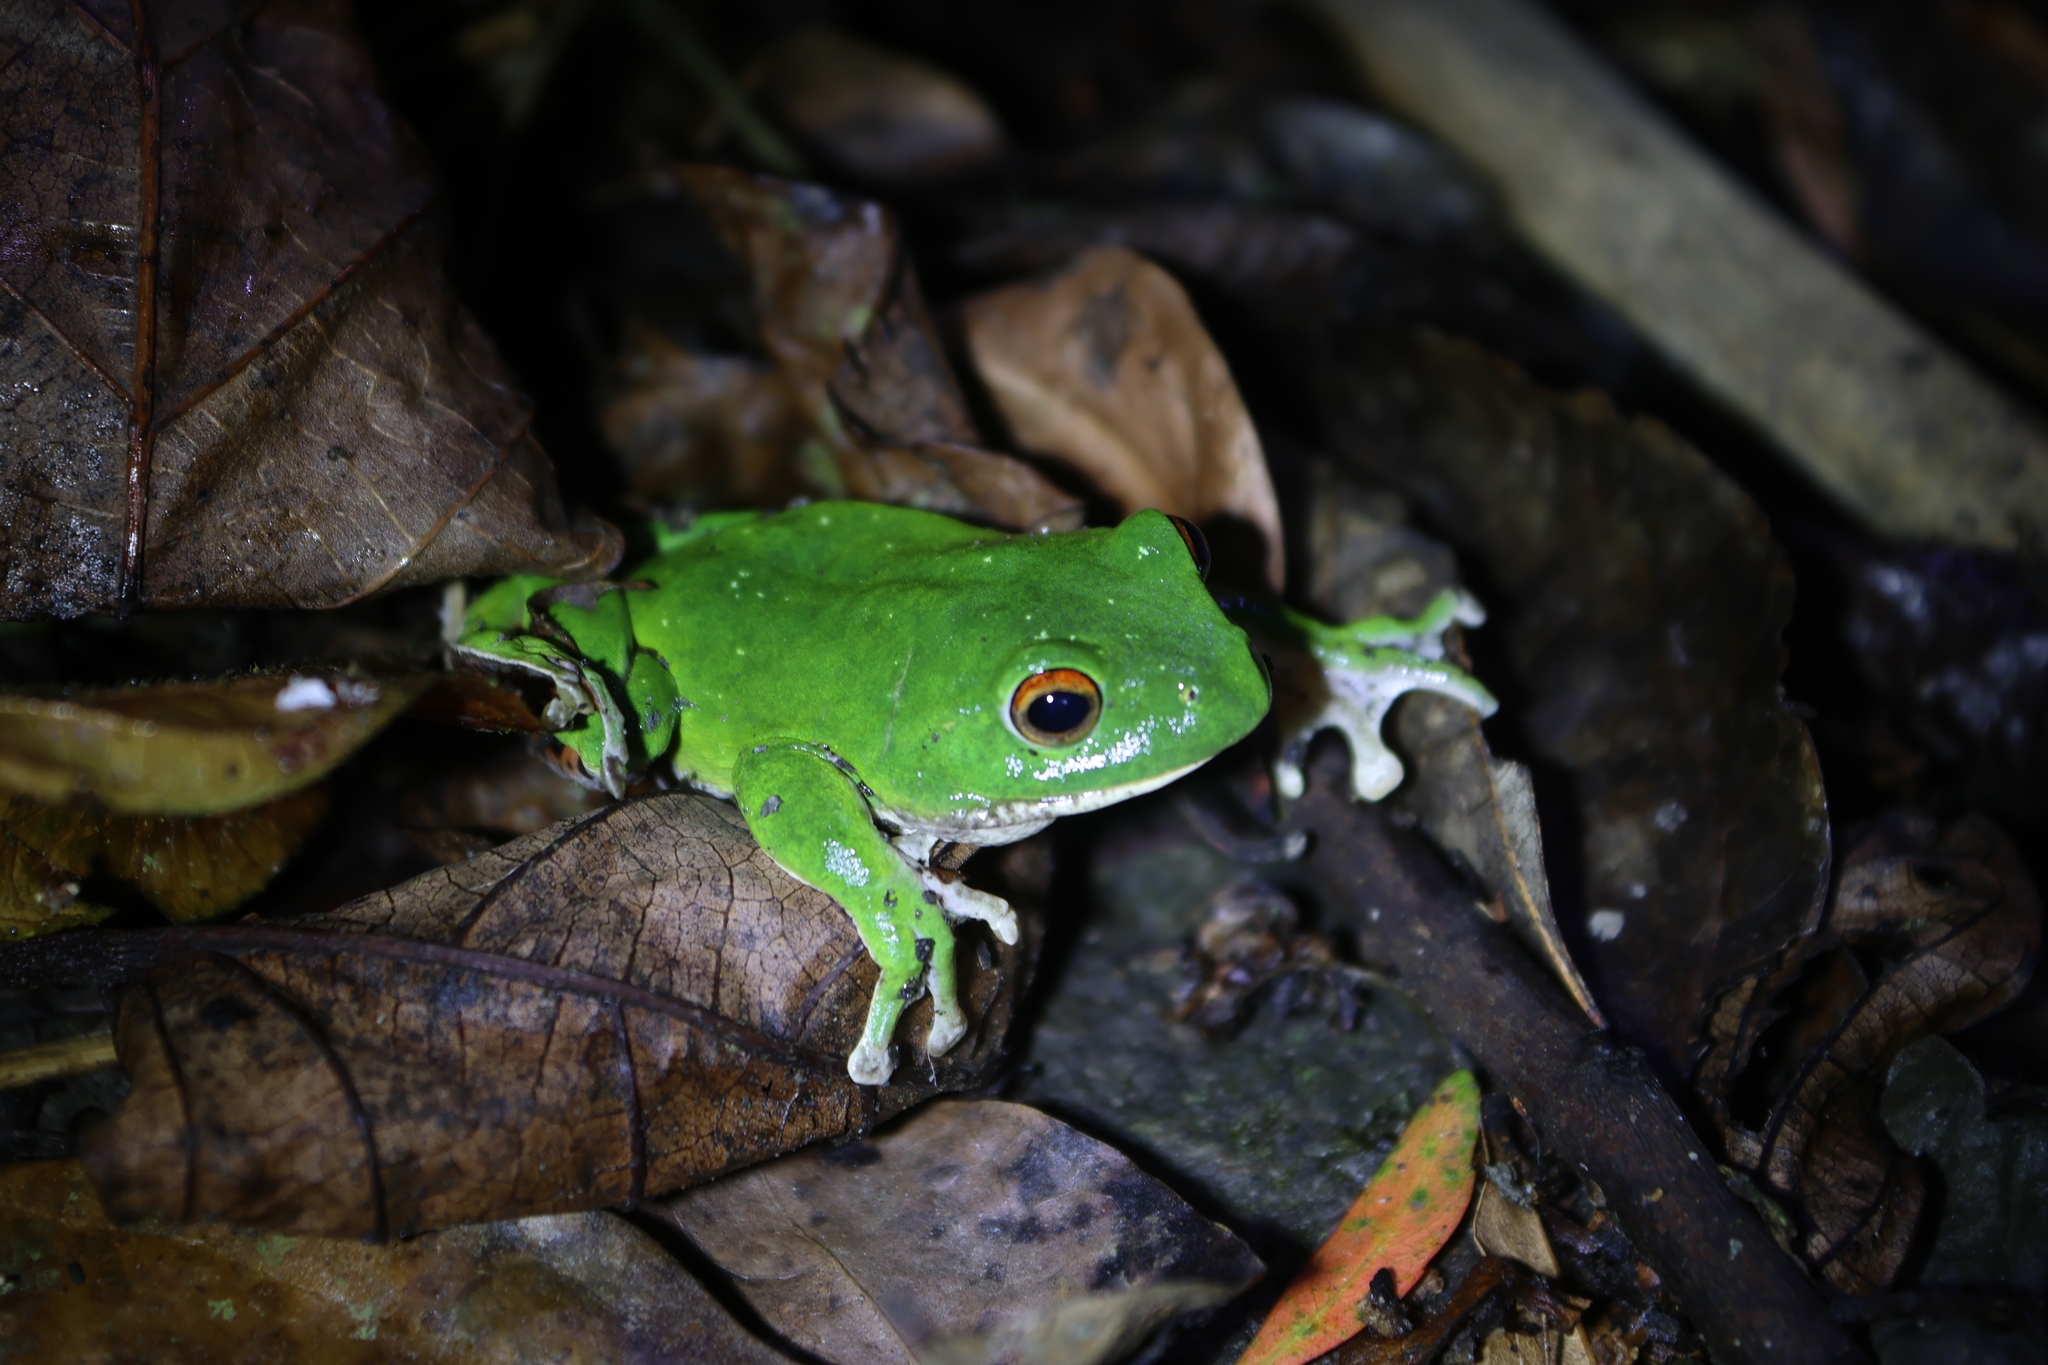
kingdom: Animalia
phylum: Chordata
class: Amphibia
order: Anura
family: Rhacophoridae
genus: Zhangixalus
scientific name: Zhangixalus moltrechti
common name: Moltrecht's treefrog
